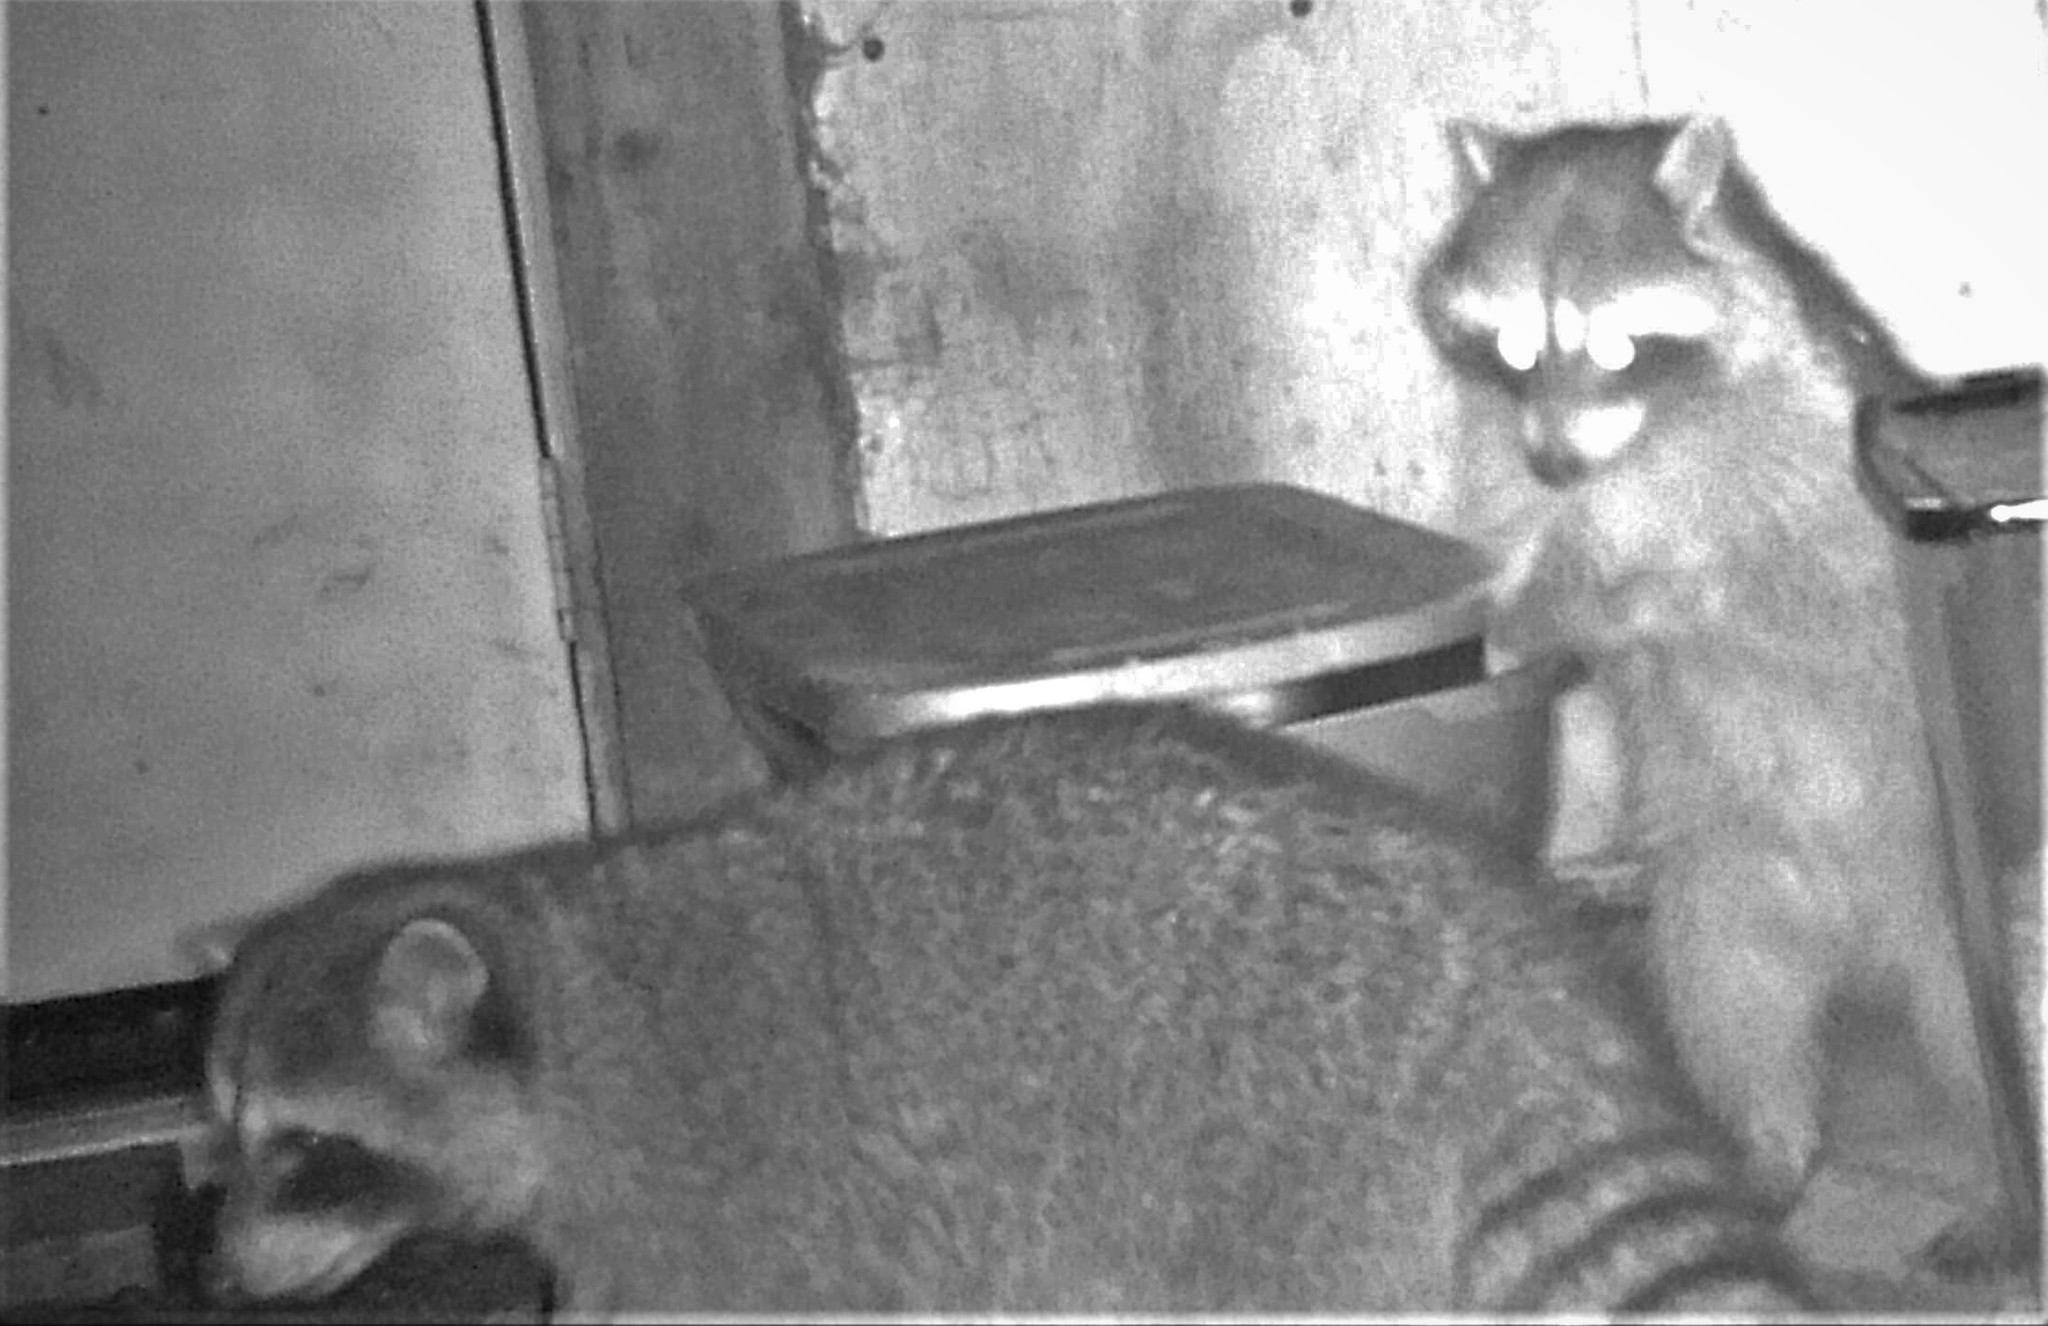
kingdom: Animalia
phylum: Chordata
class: Mammalia
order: Carnivora
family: Procyonidae
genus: Procyon
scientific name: Procyon lotor
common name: Raccoon
